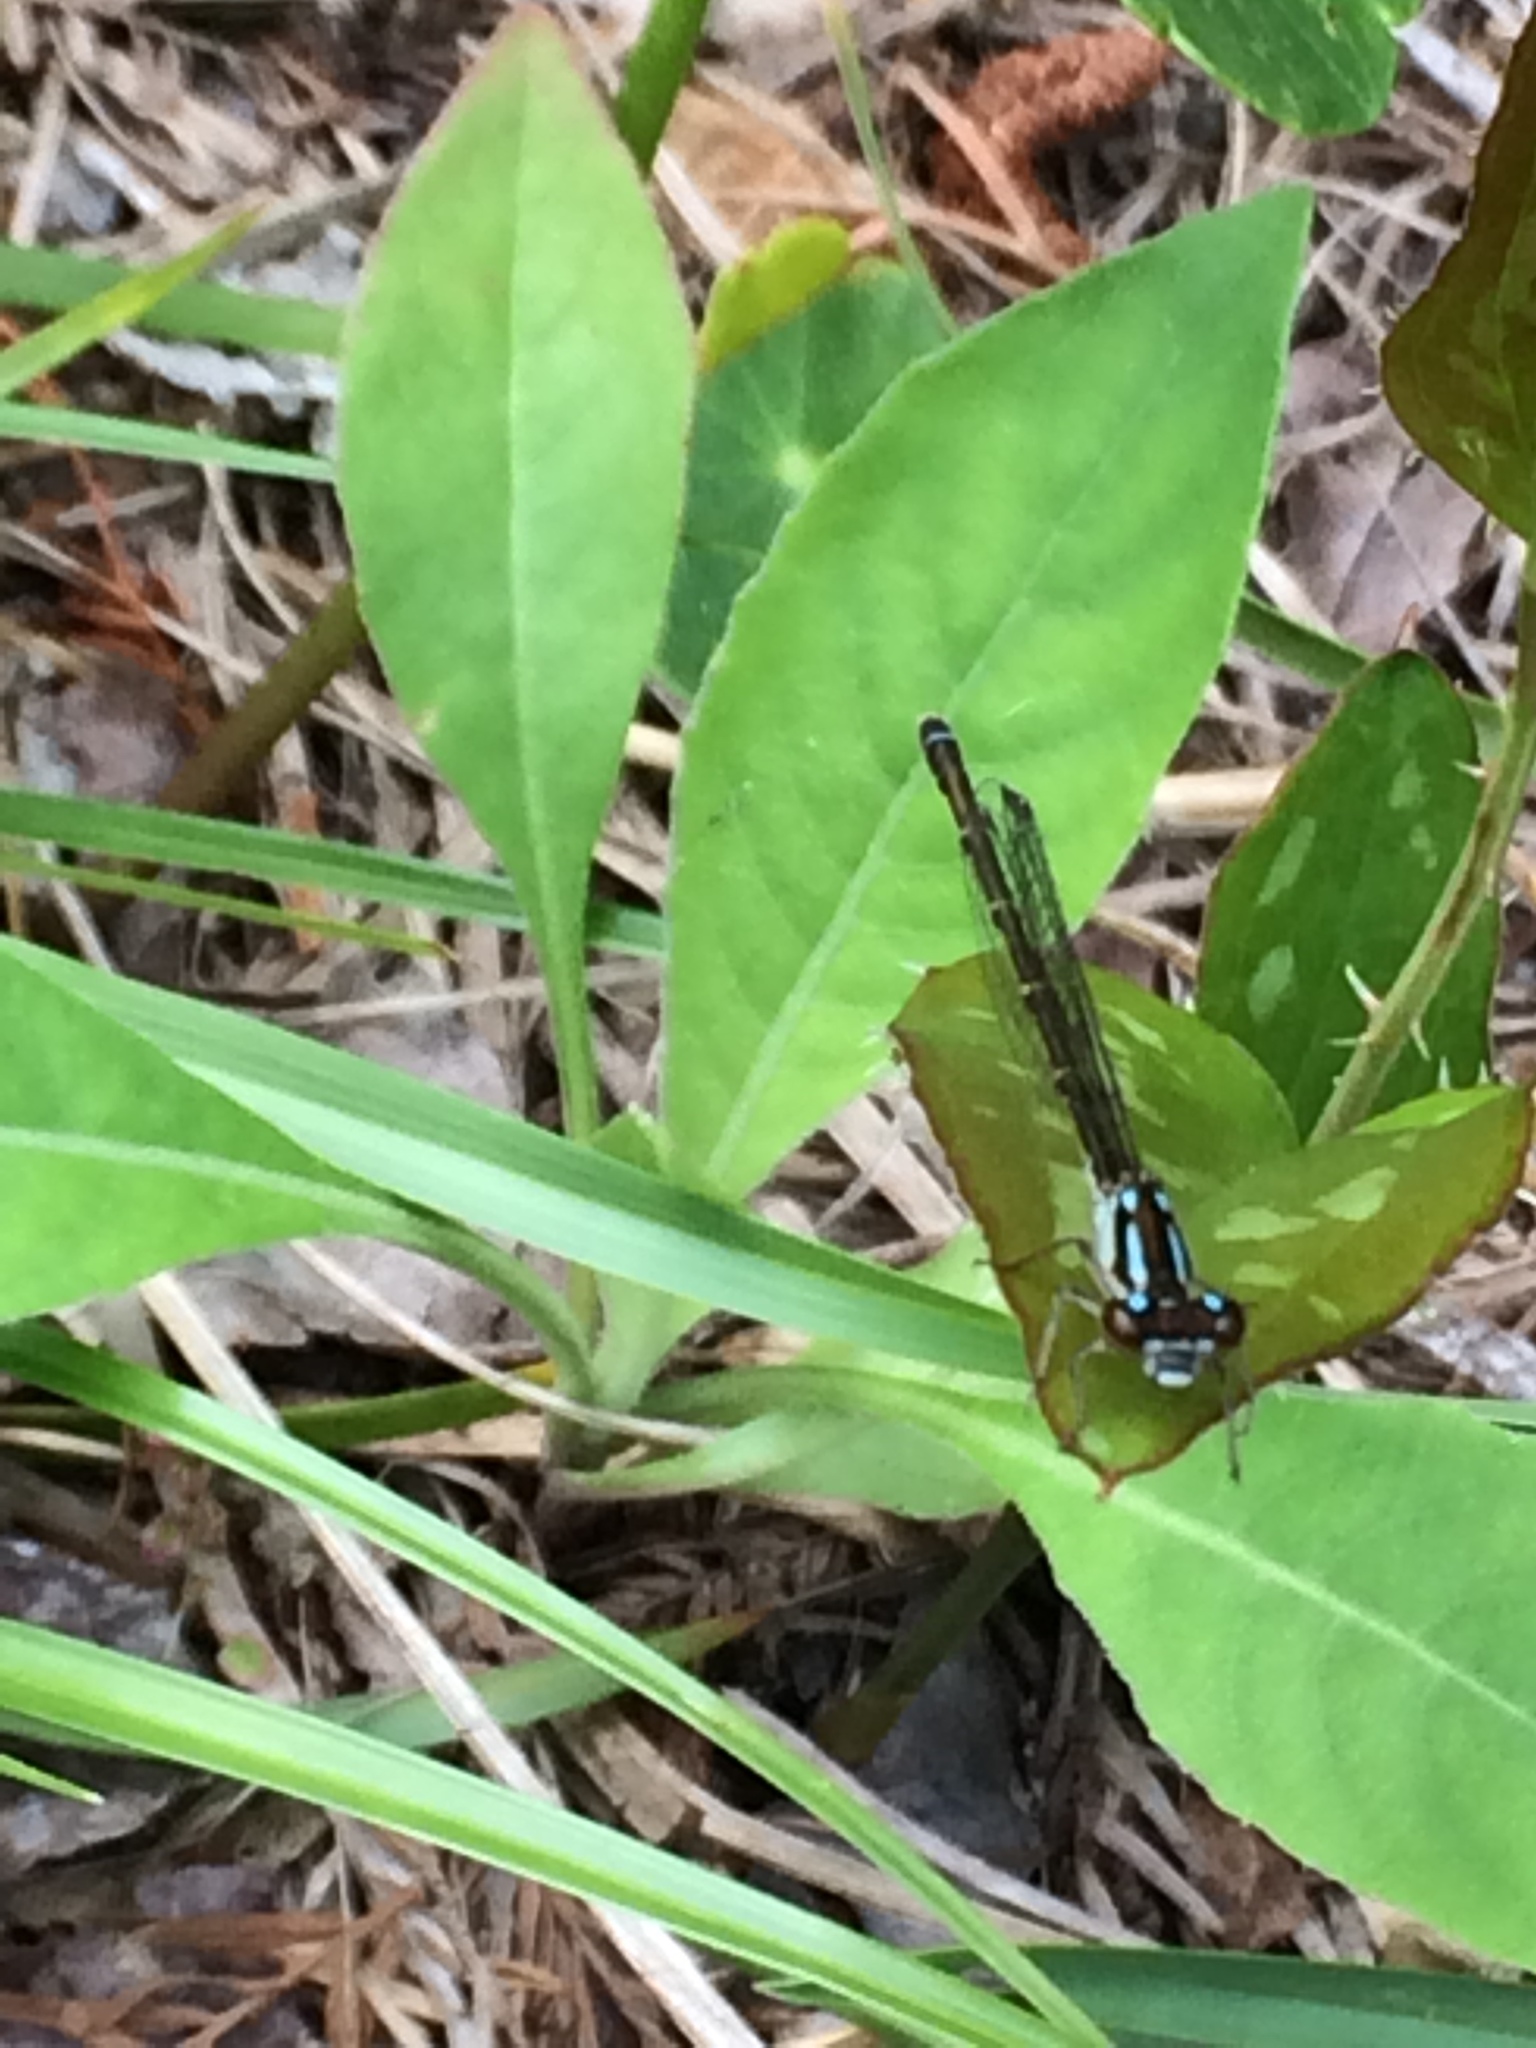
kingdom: Animalia
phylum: Arthropoda
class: Insecta
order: Odonata
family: Coenagrionidae
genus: Ischnura
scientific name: Ischnura posita
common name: Fragile forktail
